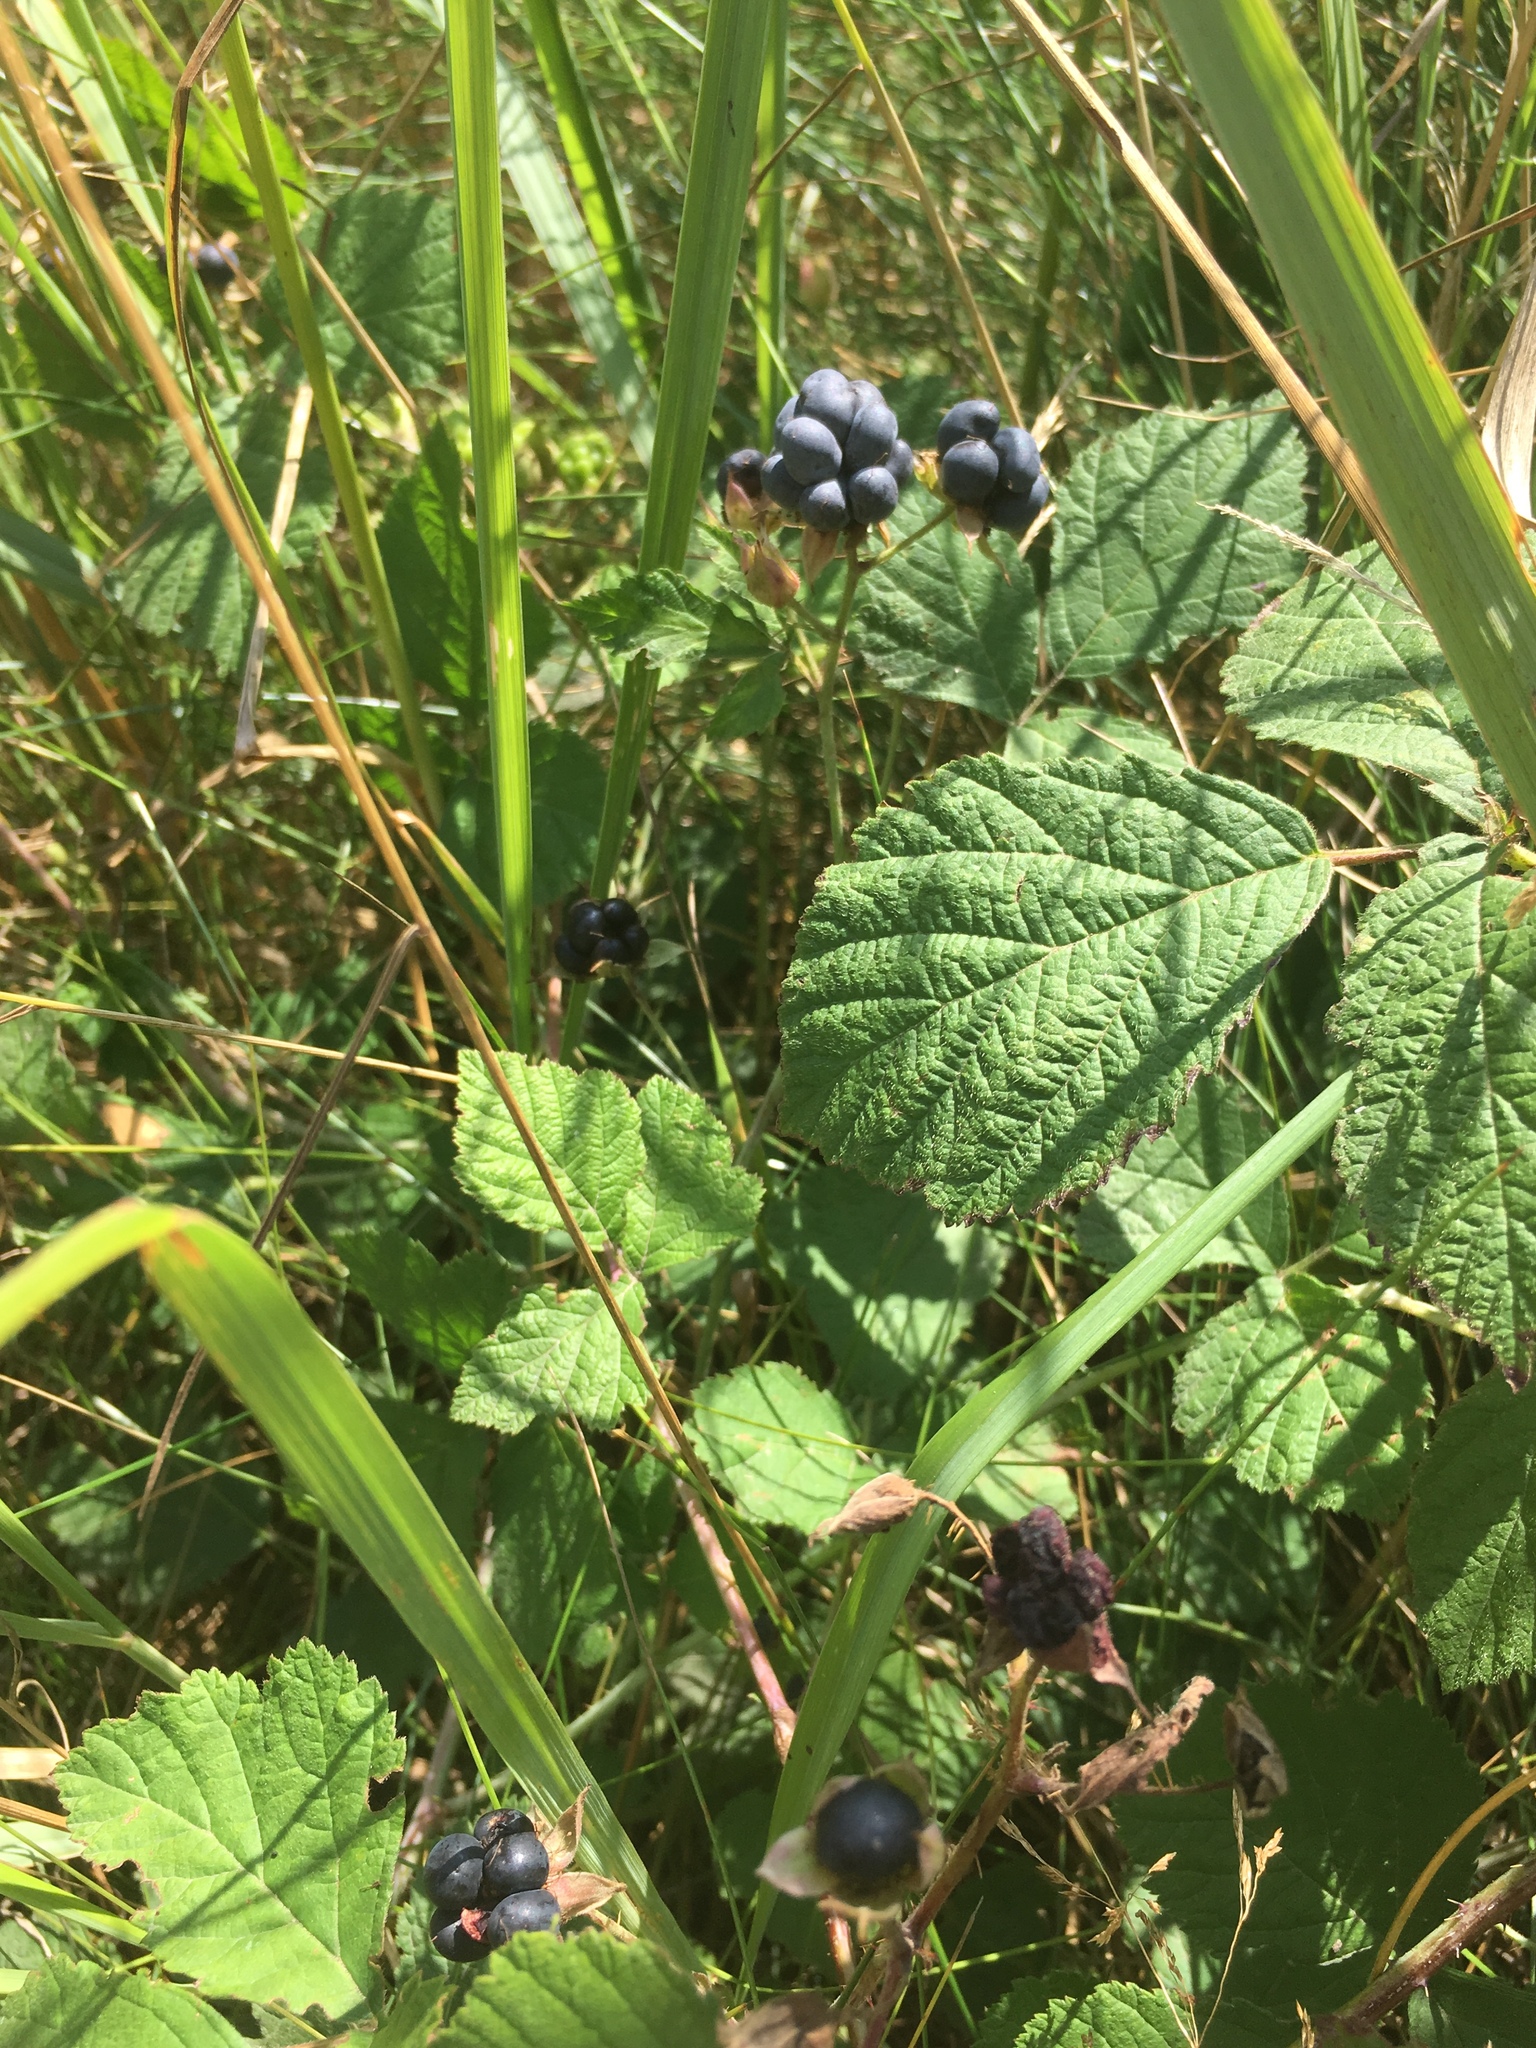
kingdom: Plantae
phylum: Tracheophyta
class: Magnoliopsida
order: Rosales
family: Rosaceae
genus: Rubus
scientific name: Rubus caesius
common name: Dewberry
